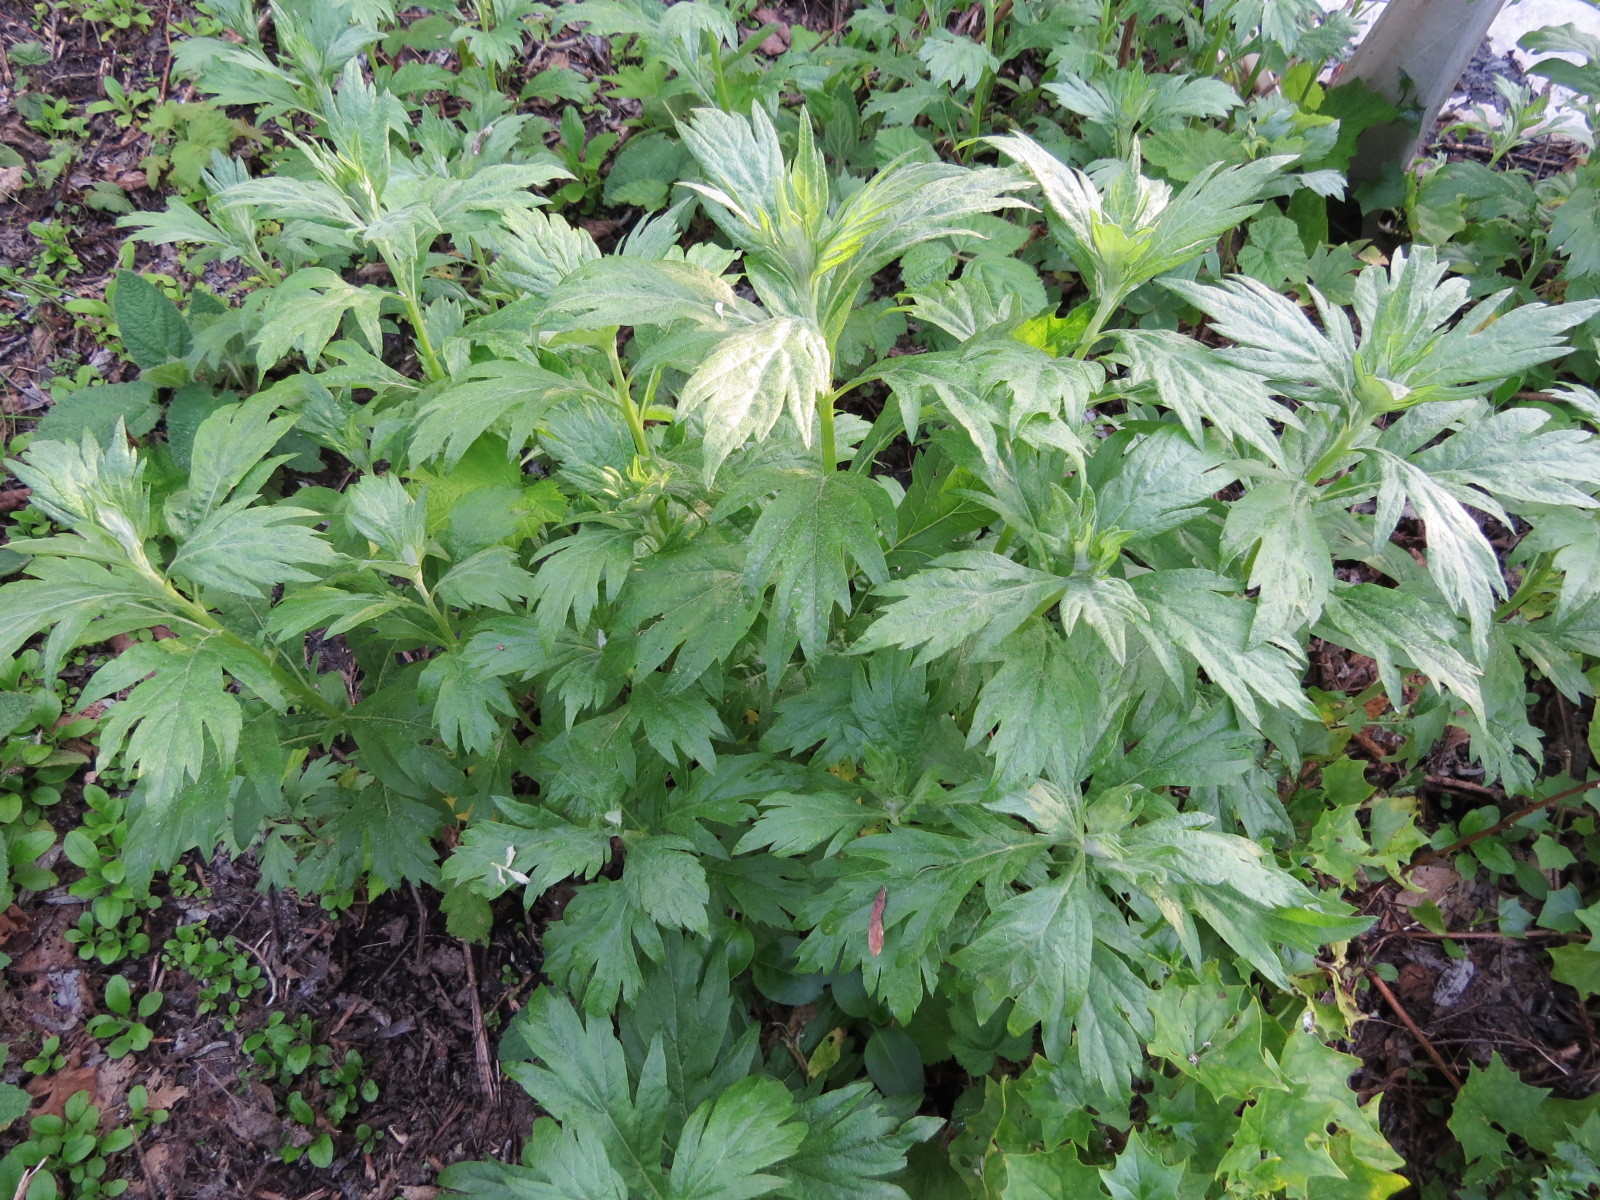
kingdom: Plantae
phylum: Tracheophyta
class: Magnoliopsida
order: Asterales
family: Asteraceae
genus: Artemisia
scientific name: Artemisia douglasiana
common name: Northwest mugwort
